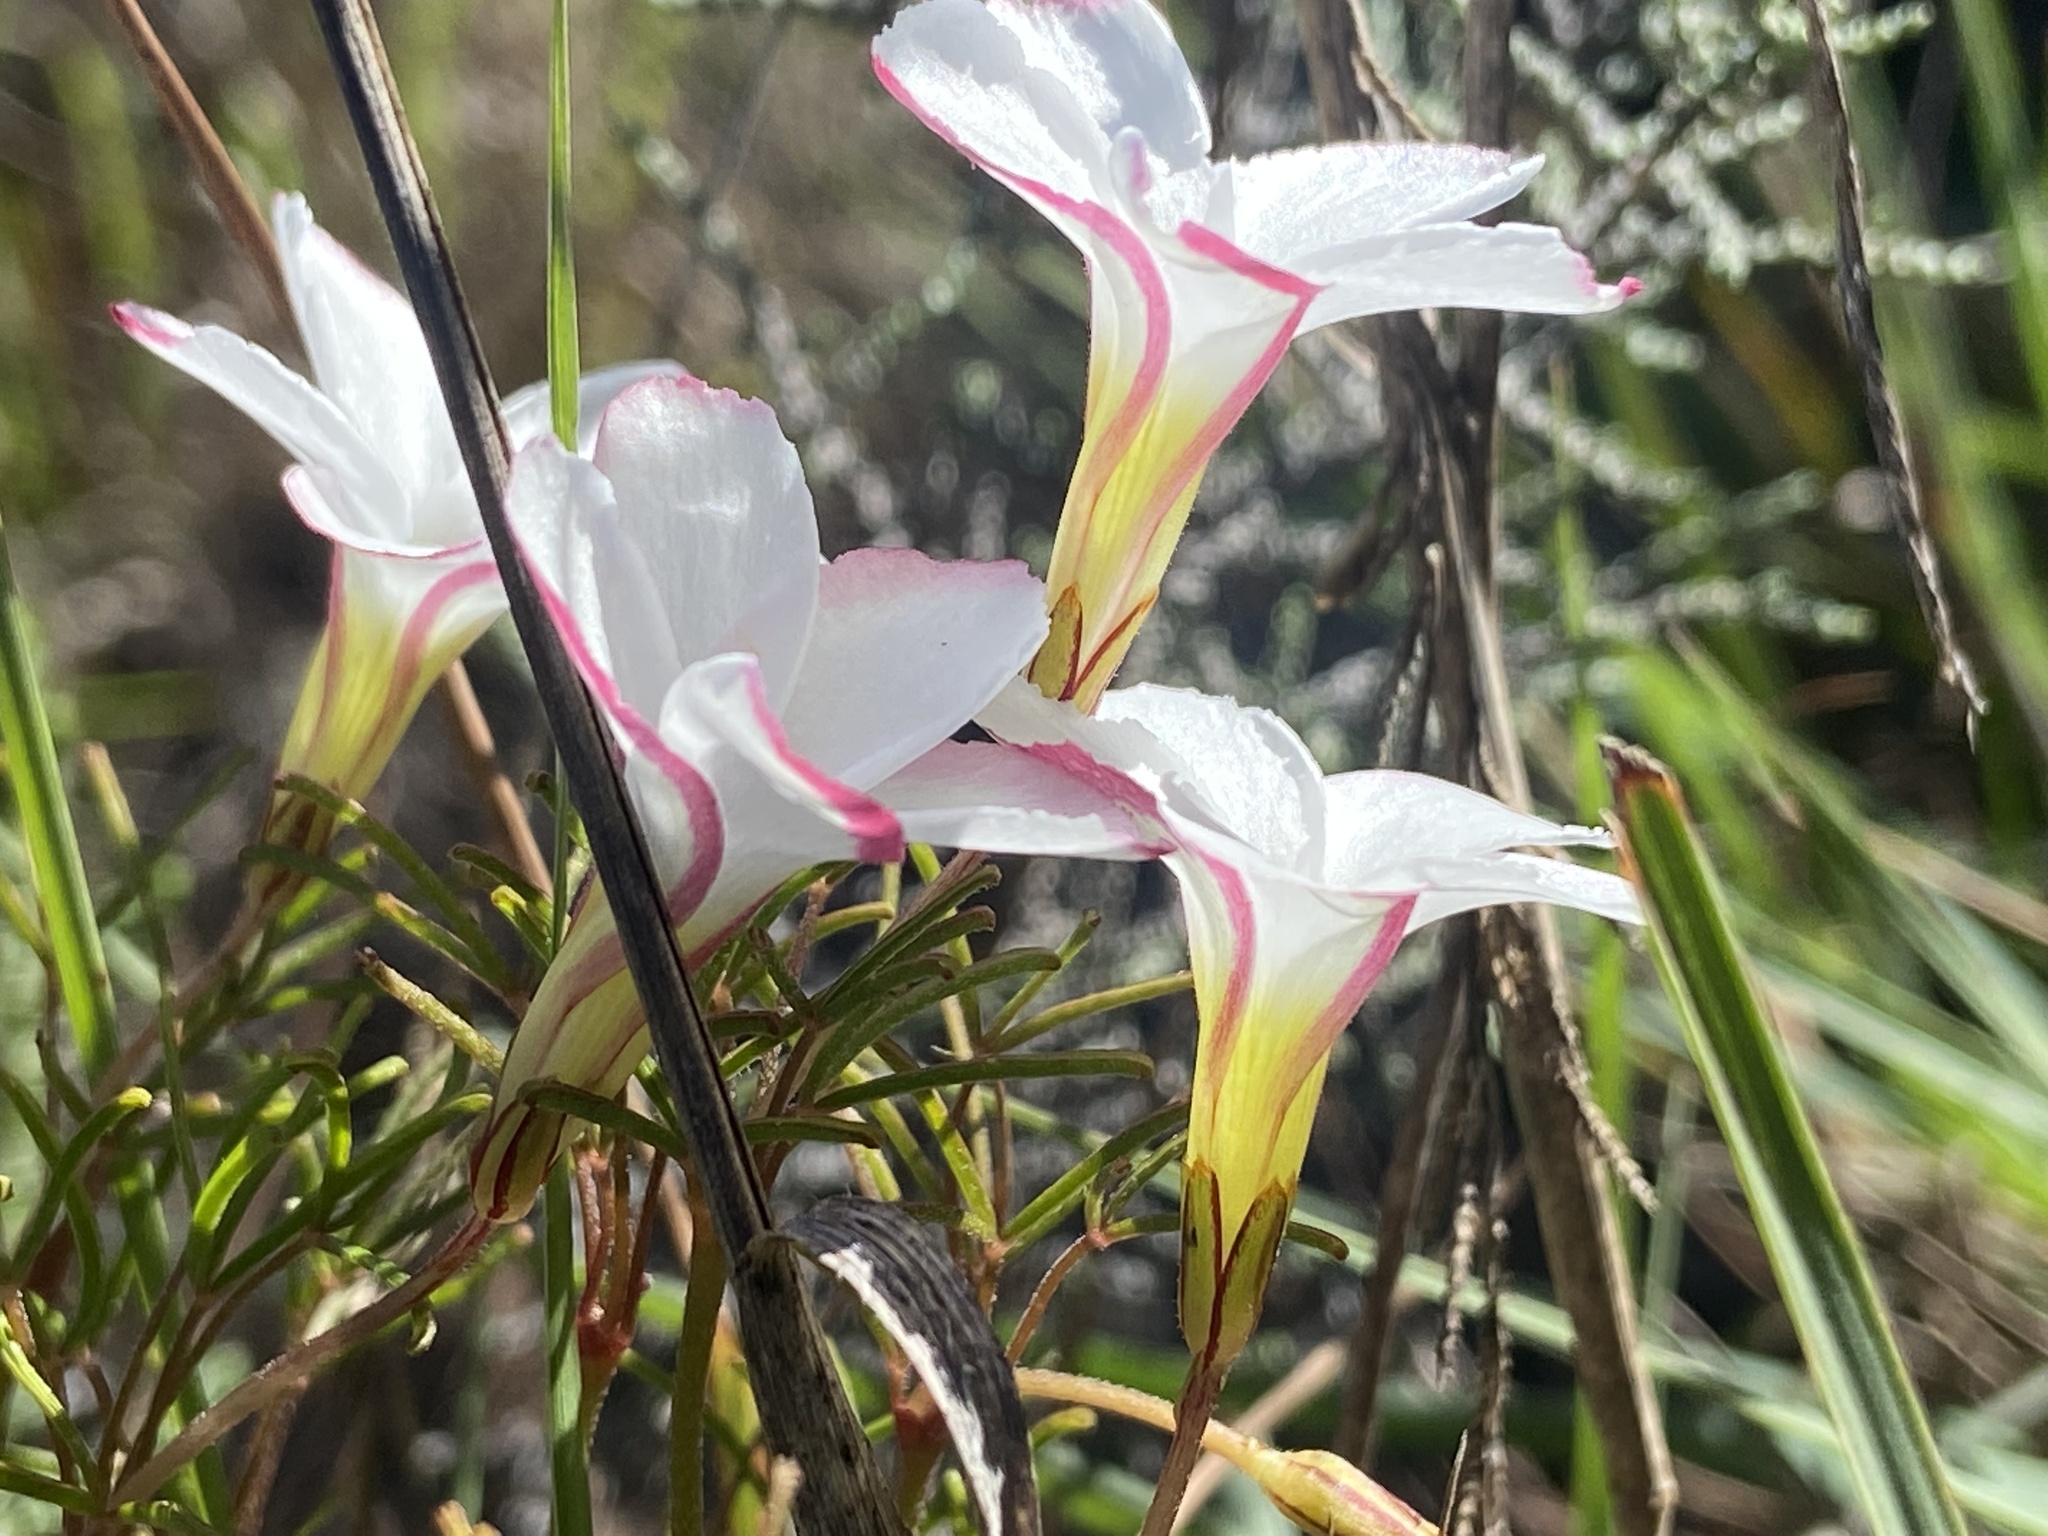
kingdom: Plantae
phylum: Tracheophyta
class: Magnoliopsida
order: Oxalidales
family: Oxalidaceae
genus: Oxalis
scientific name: Oxalis versicolor
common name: Peppermint rock oxalis
